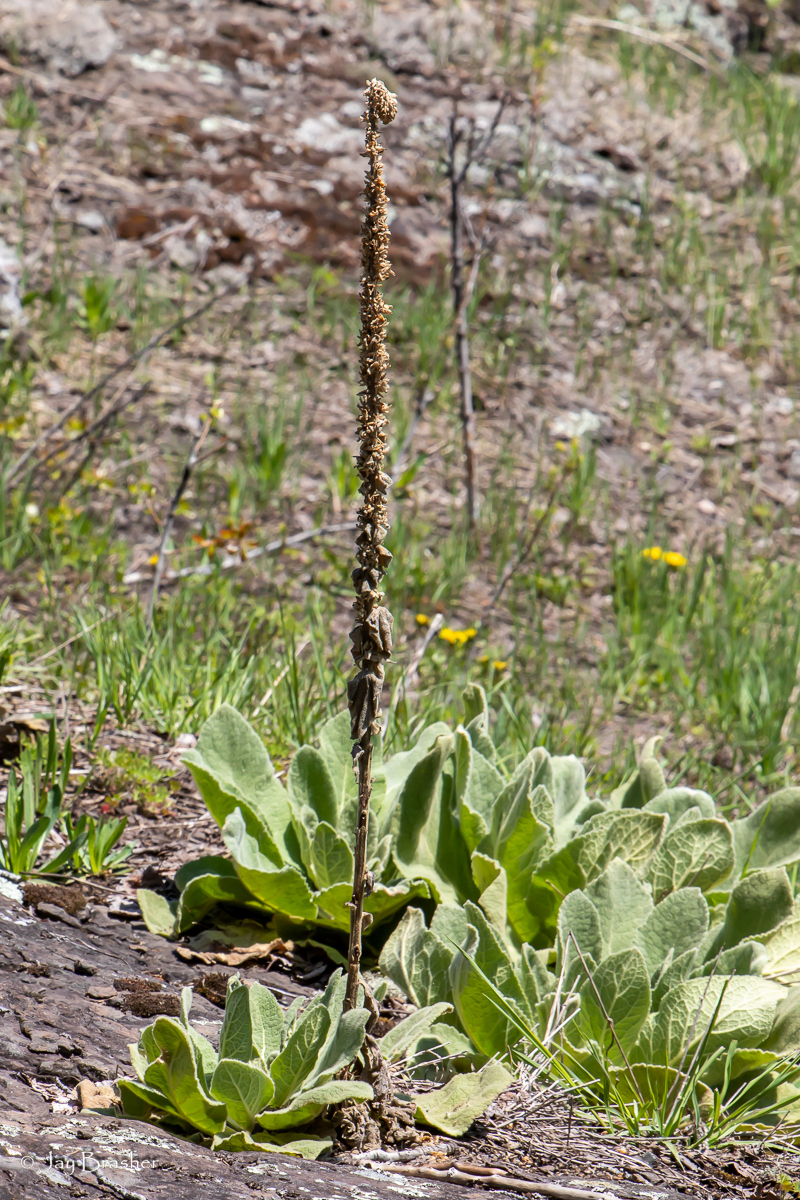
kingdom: Plantae
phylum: Tracheophyta
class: Magnoliopsida
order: Lamiales
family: Scrophulariaceae
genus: Verbascum
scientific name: Verbascum thapsus
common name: Common mullein
